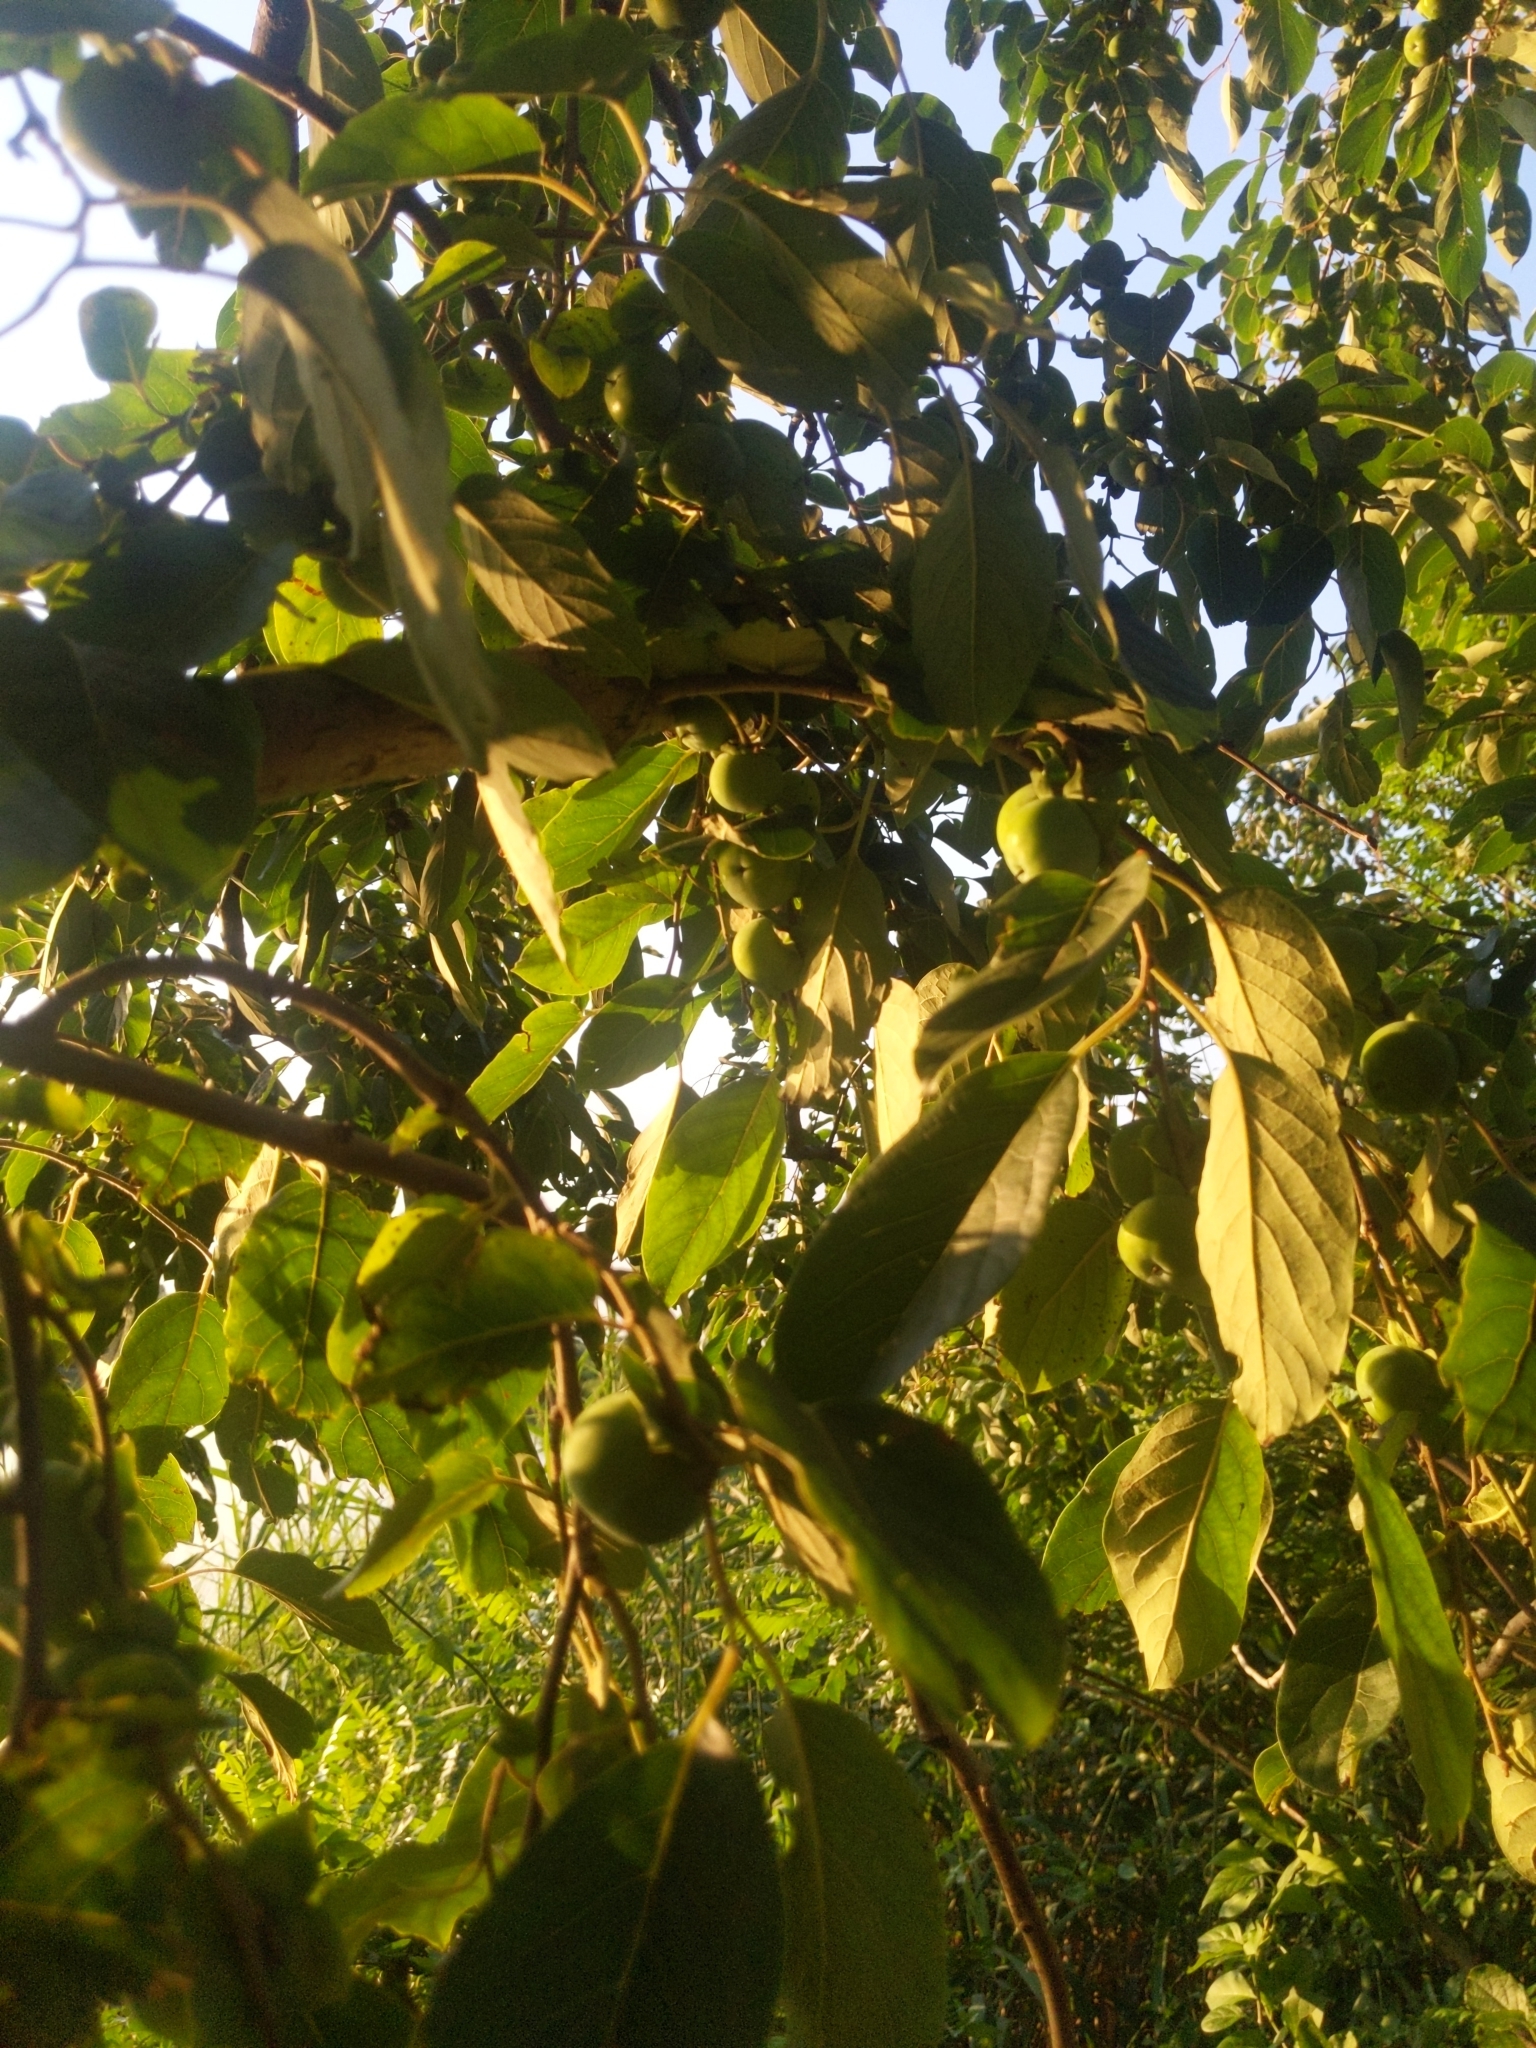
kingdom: Plantae
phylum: Tracheophyta
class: Magnoliopsida
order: Ericales
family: Ebenaceae
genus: Diospyros
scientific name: Diospyros virginiana
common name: Persimmon
